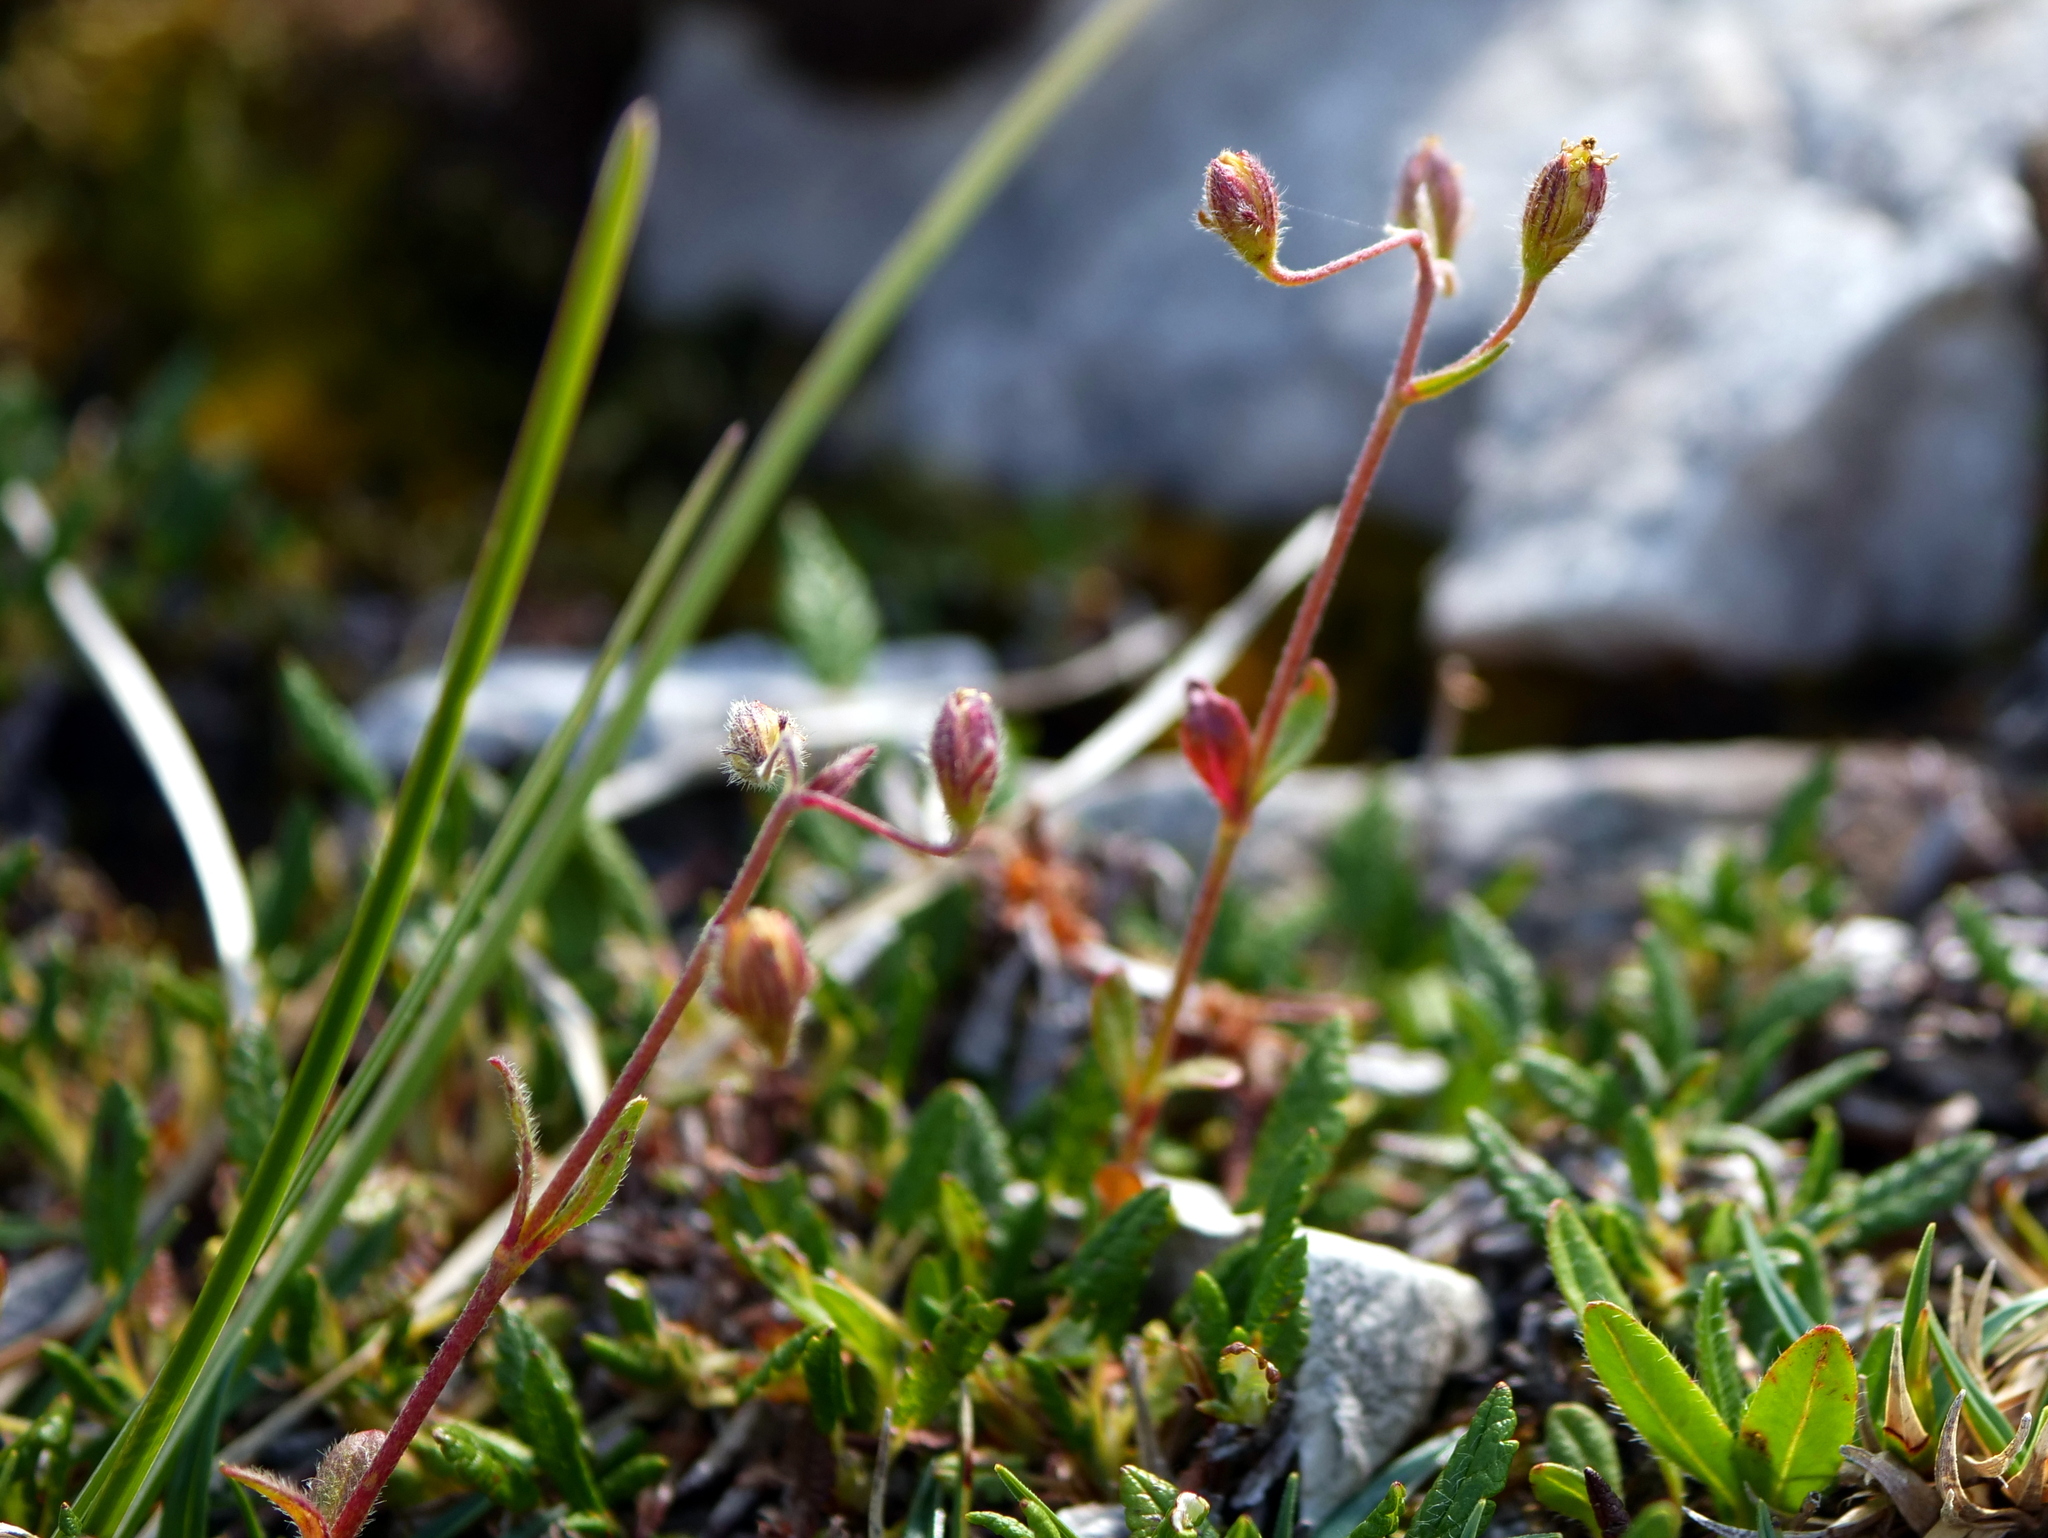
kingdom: Plantae
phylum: Tracheophyta
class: Magnoliopsida
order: Malvales
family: Cistaceae
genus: Helianthemum
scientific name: Helianthemum alpestre
